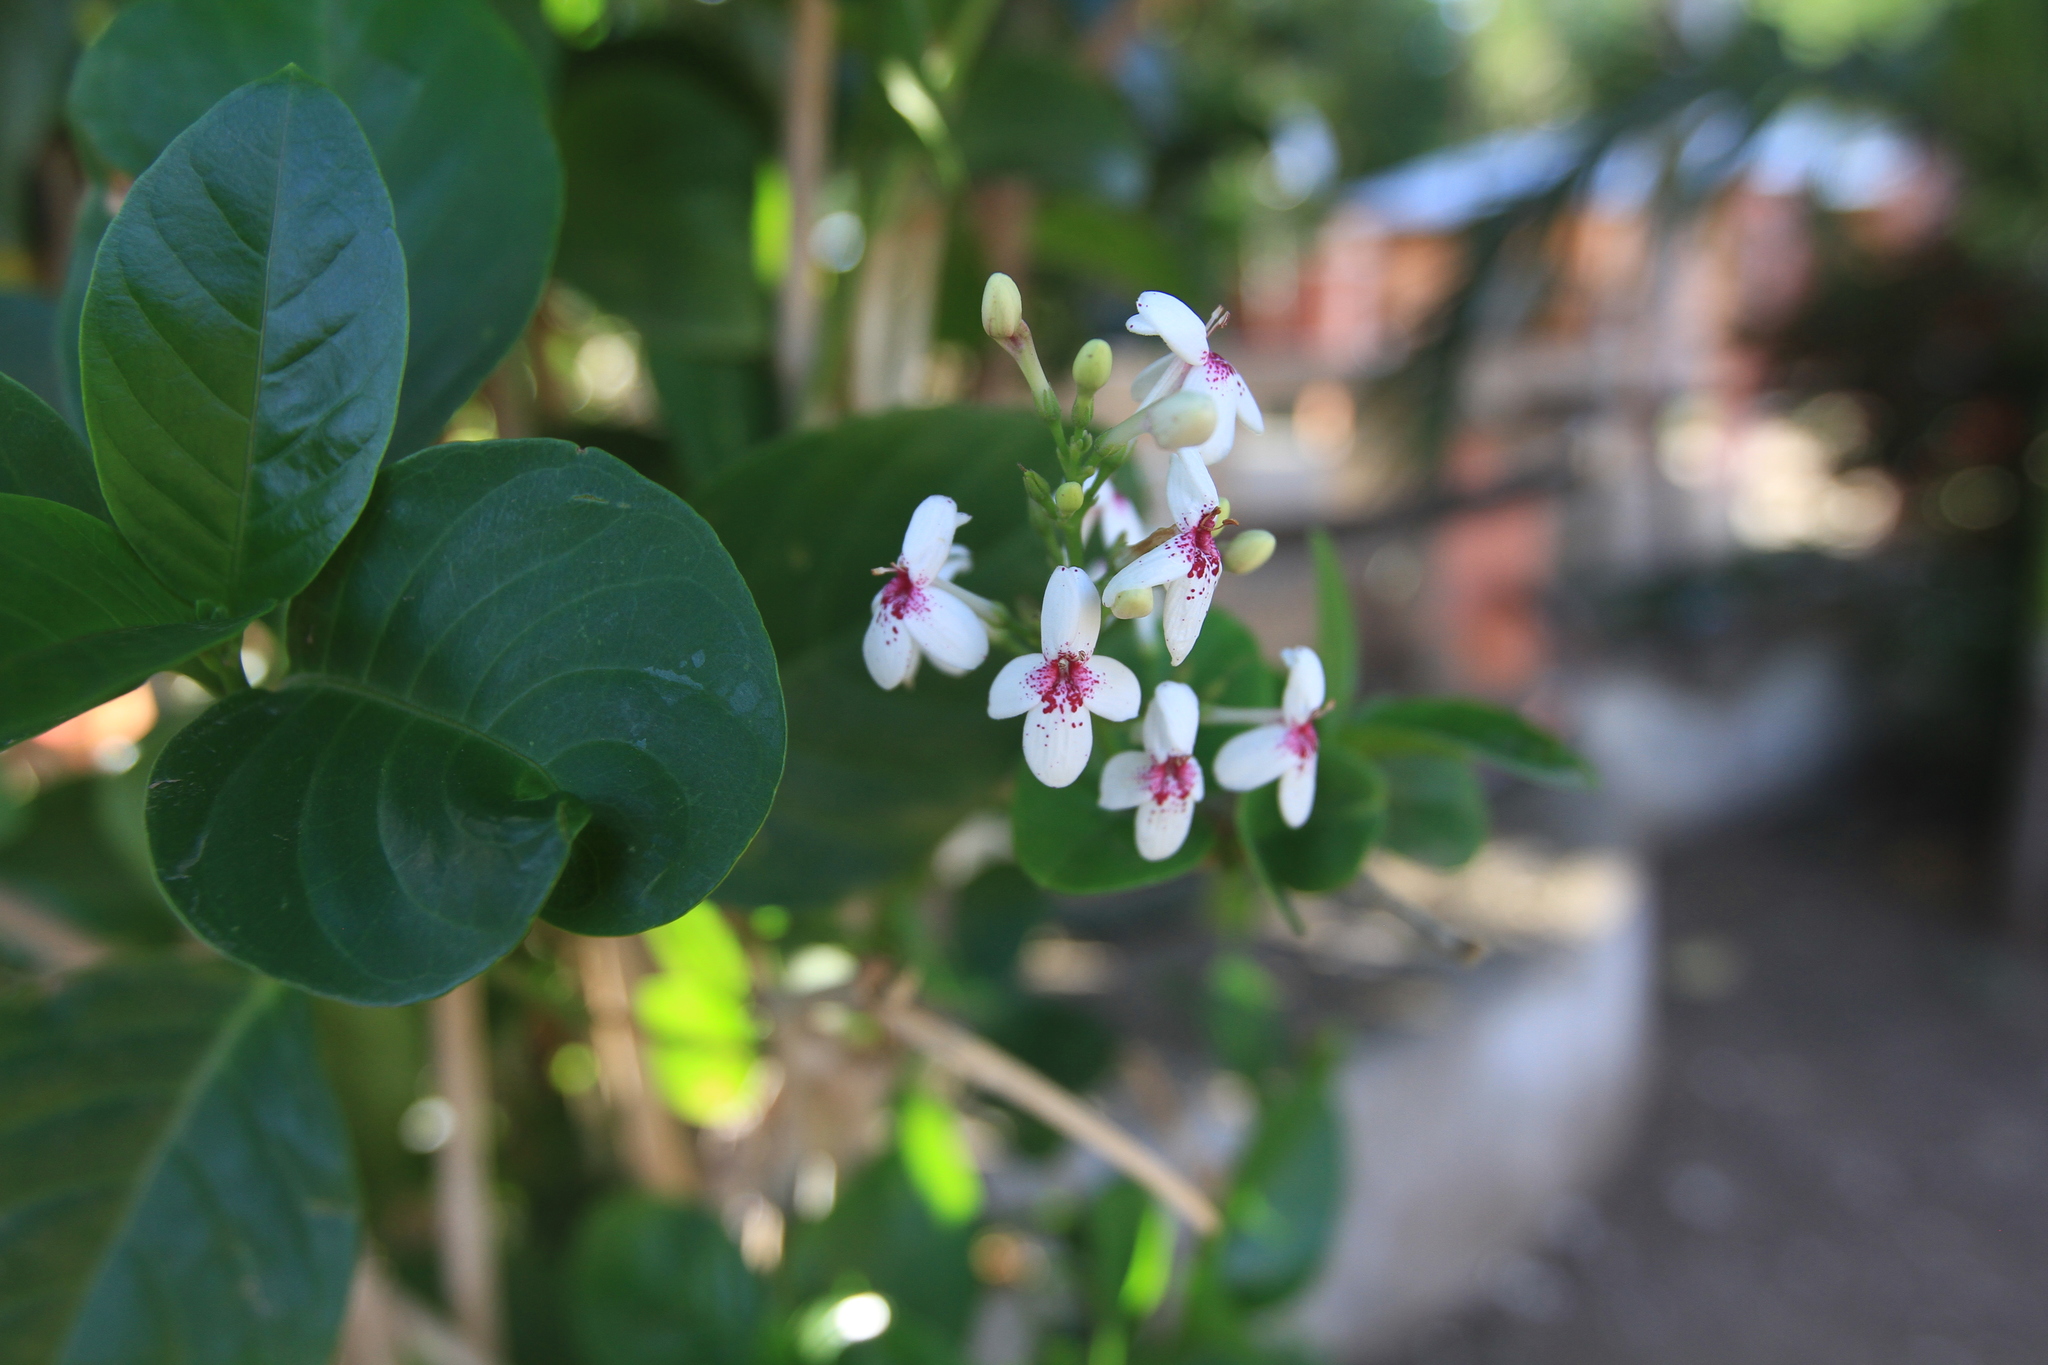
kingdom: Plantae
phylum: Tracheophyta
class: Magnoliopsida
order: Lamiales
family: Acanthaceae
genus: Pseuderanthemum
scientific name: Pseuderanthemum maculatum
